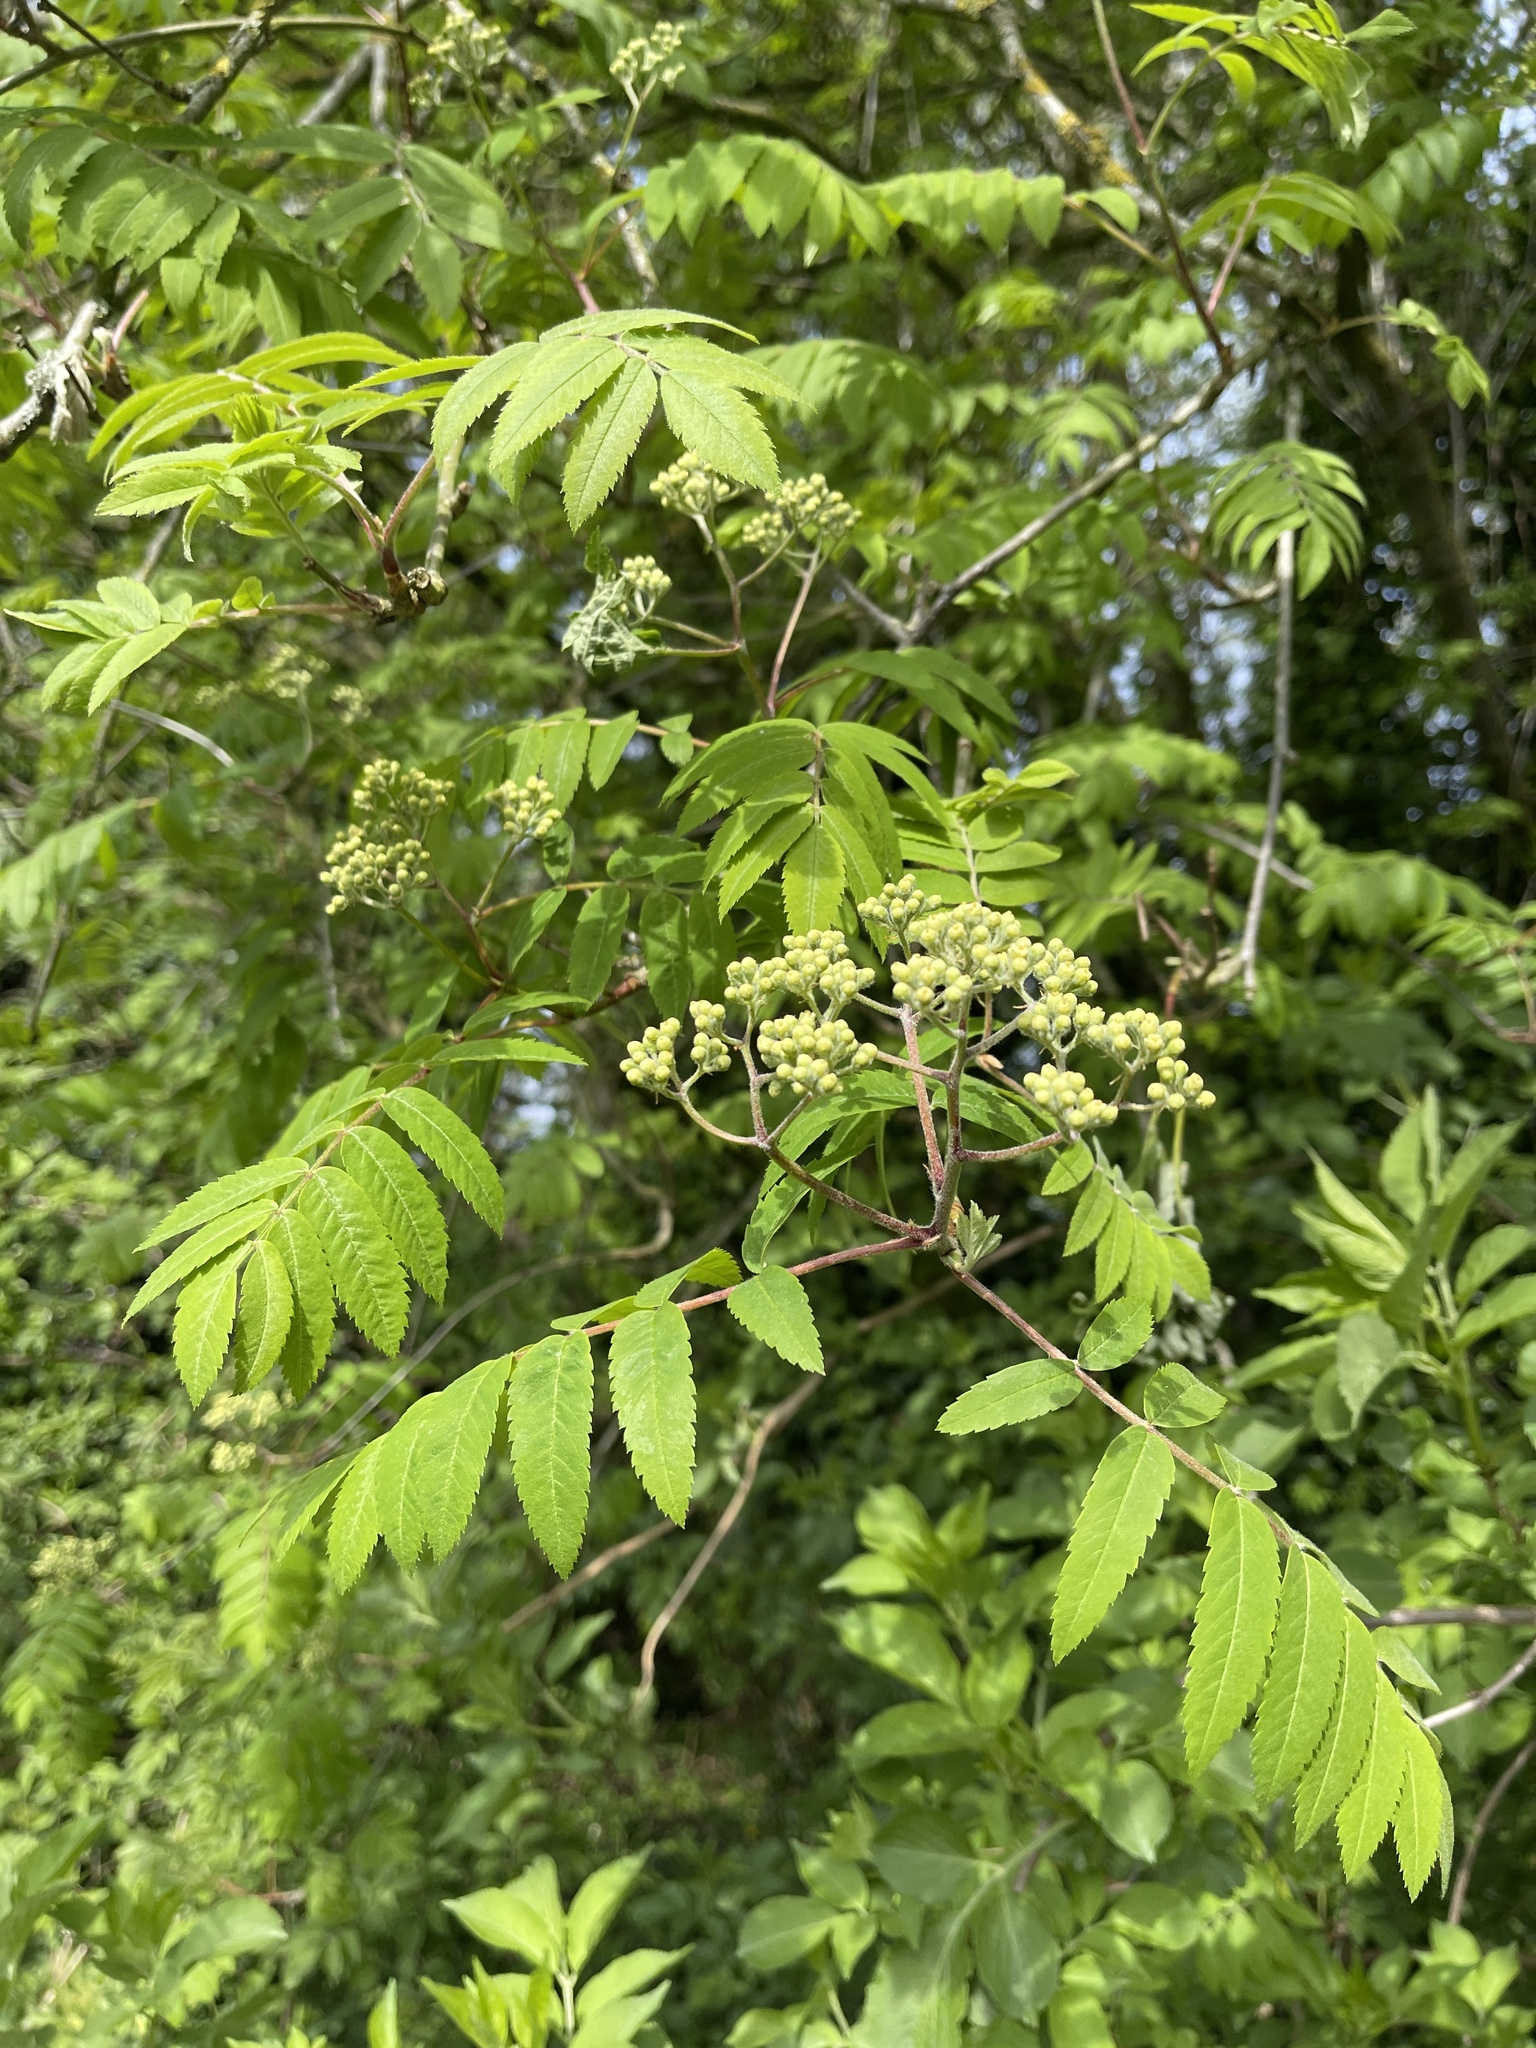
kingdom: Plantae
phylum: Tracheophyta
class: Magnoliopsida
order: Rosales
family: Rosaceae
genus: Sorbus
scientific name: Sorbus aucuparia
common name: Rowan
